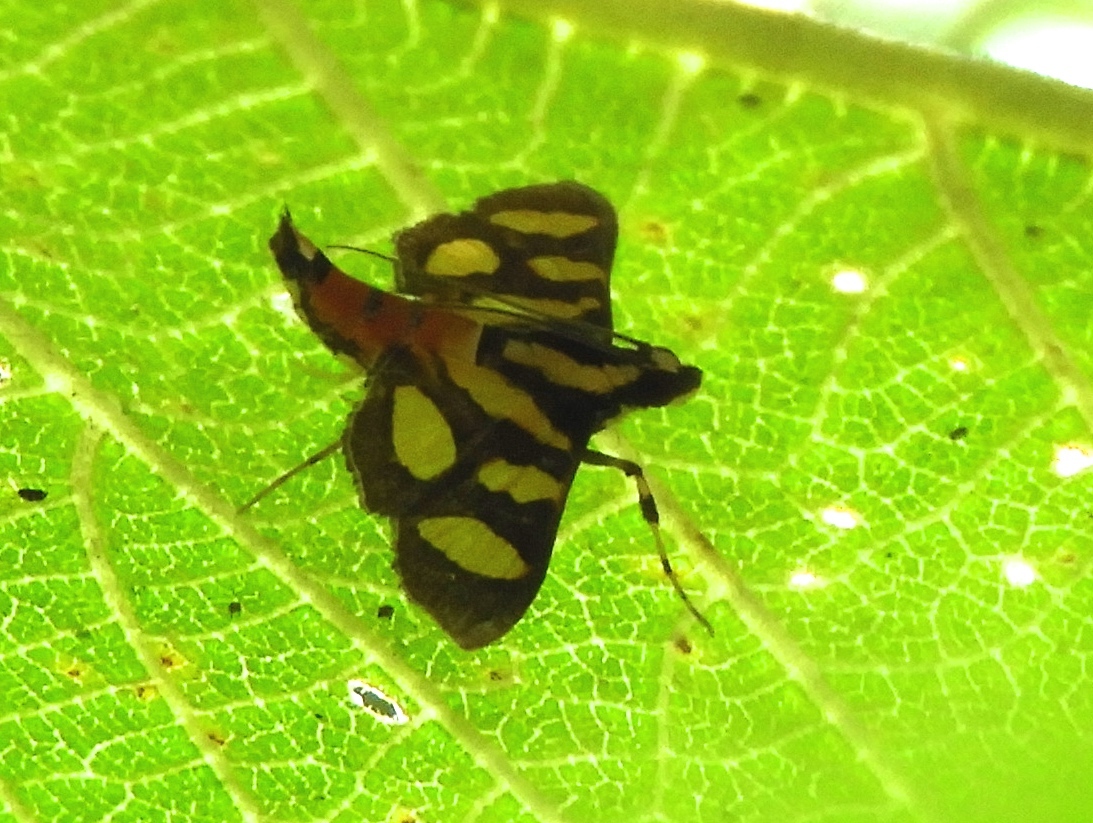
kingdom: Animalia
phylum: Arthropoda
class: Insecta
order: Lepidoptera
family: Crambidae
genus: Syngamia
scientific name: Syngamia florella
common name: Orange-spotted flower moth
